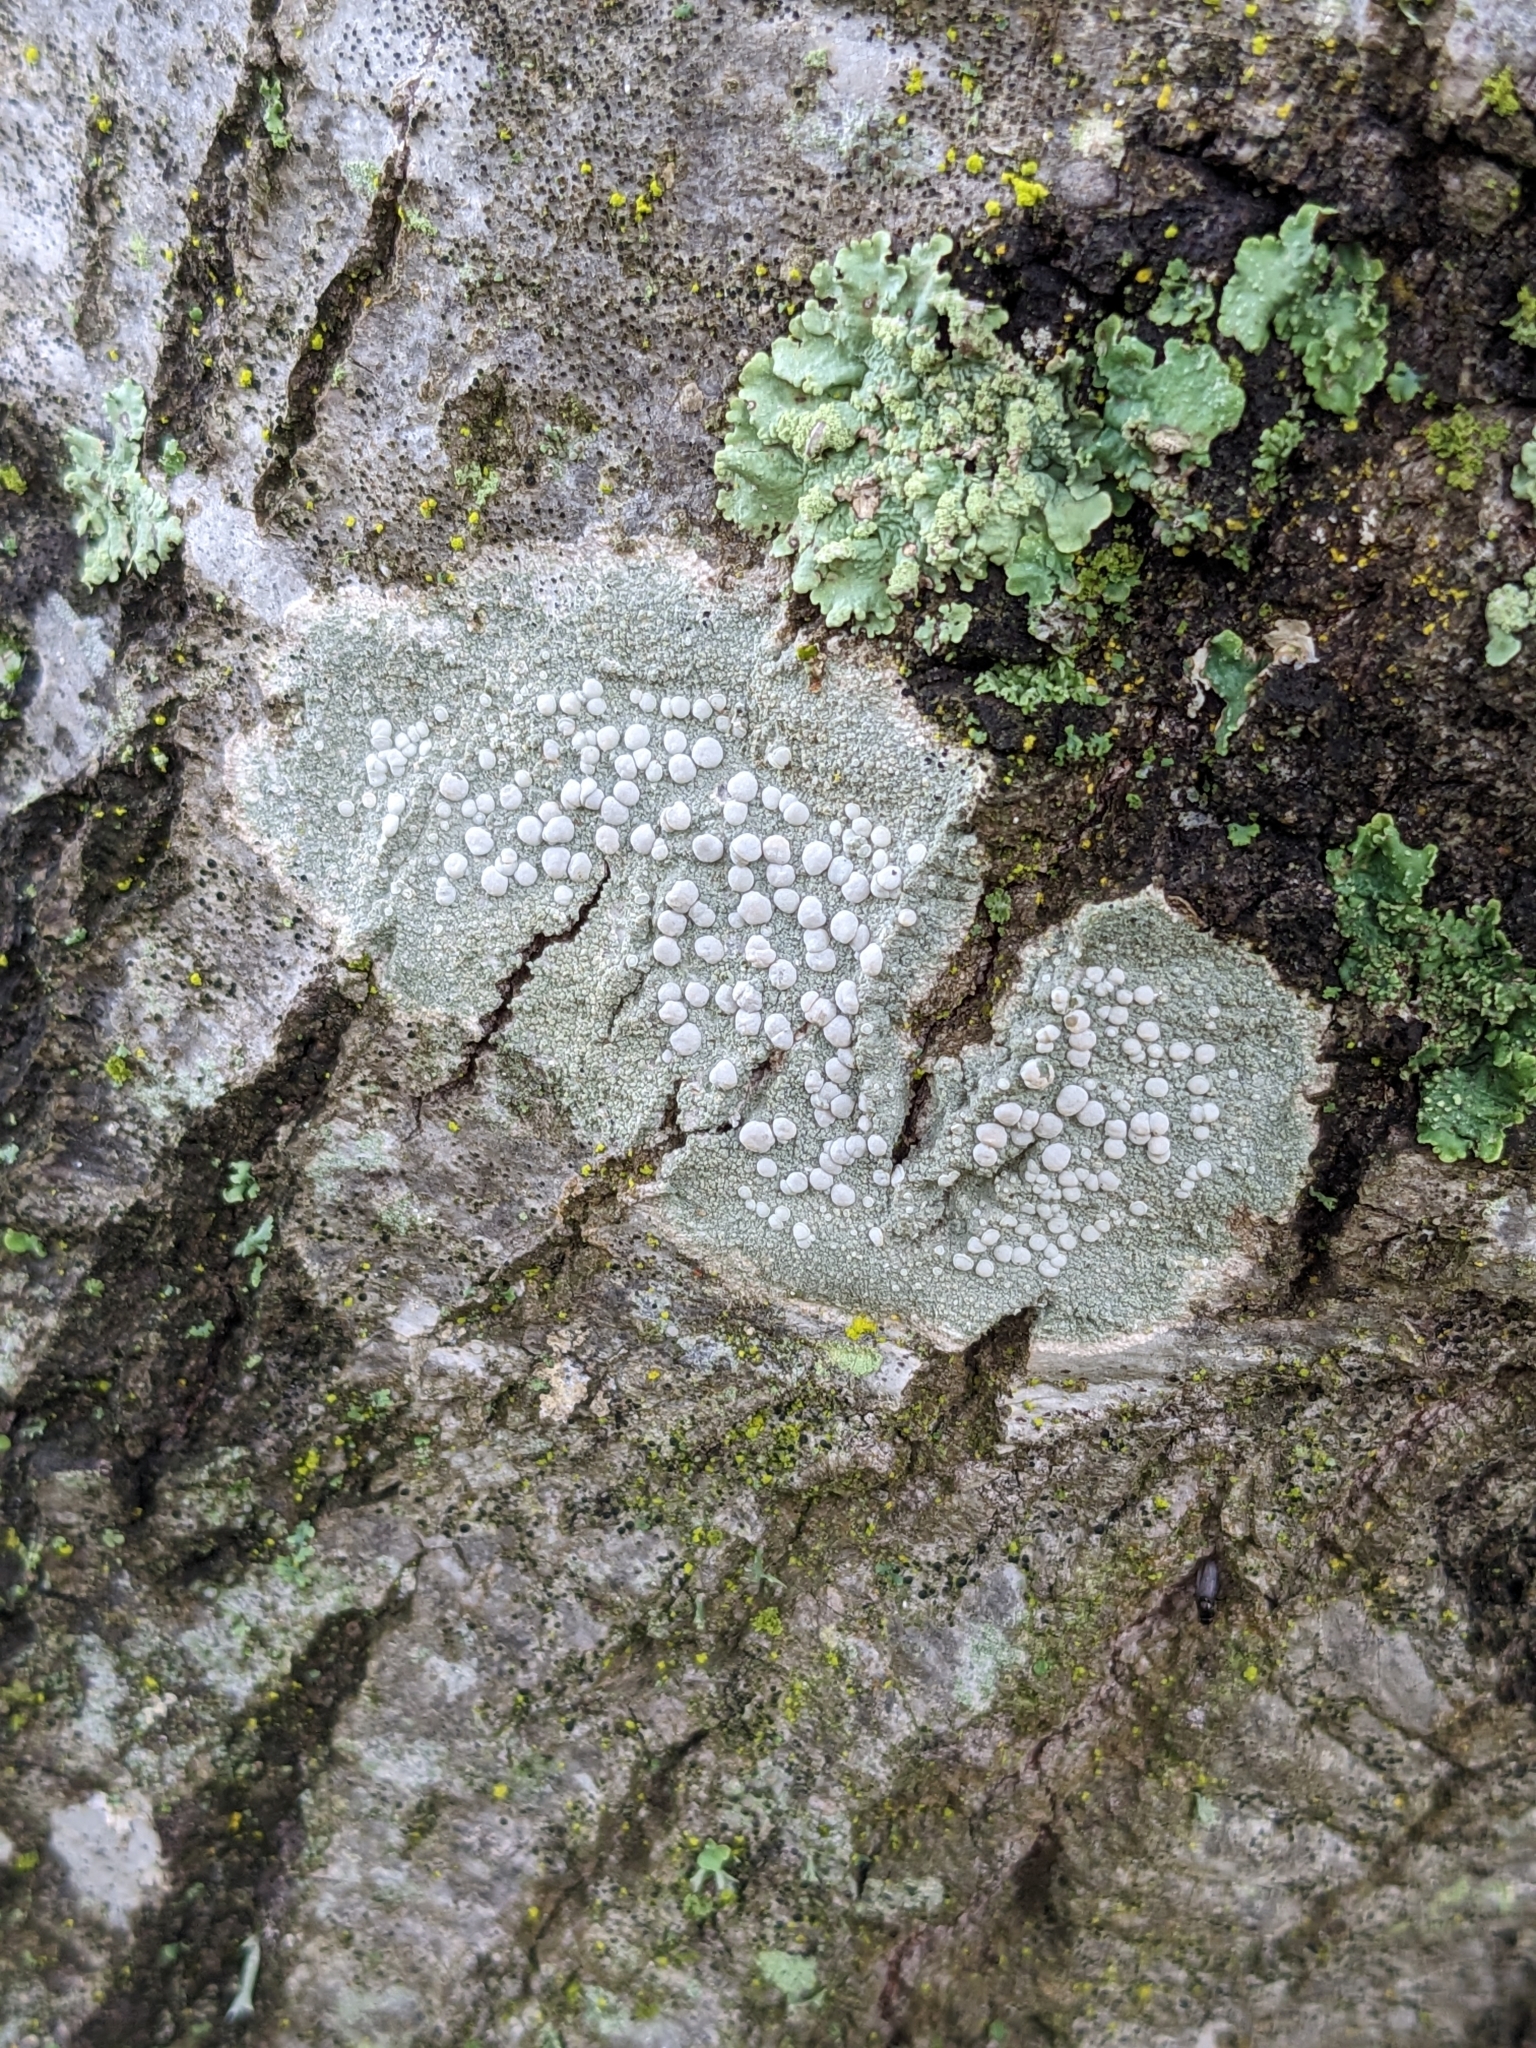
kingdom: Fungi
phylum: Ascomycota
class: Lecanoromycetes
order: Lecanorales
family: Lecanoraceae
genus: Lecanora
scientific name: Lecanora caesiorubella
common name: Frosted rim-lichen
